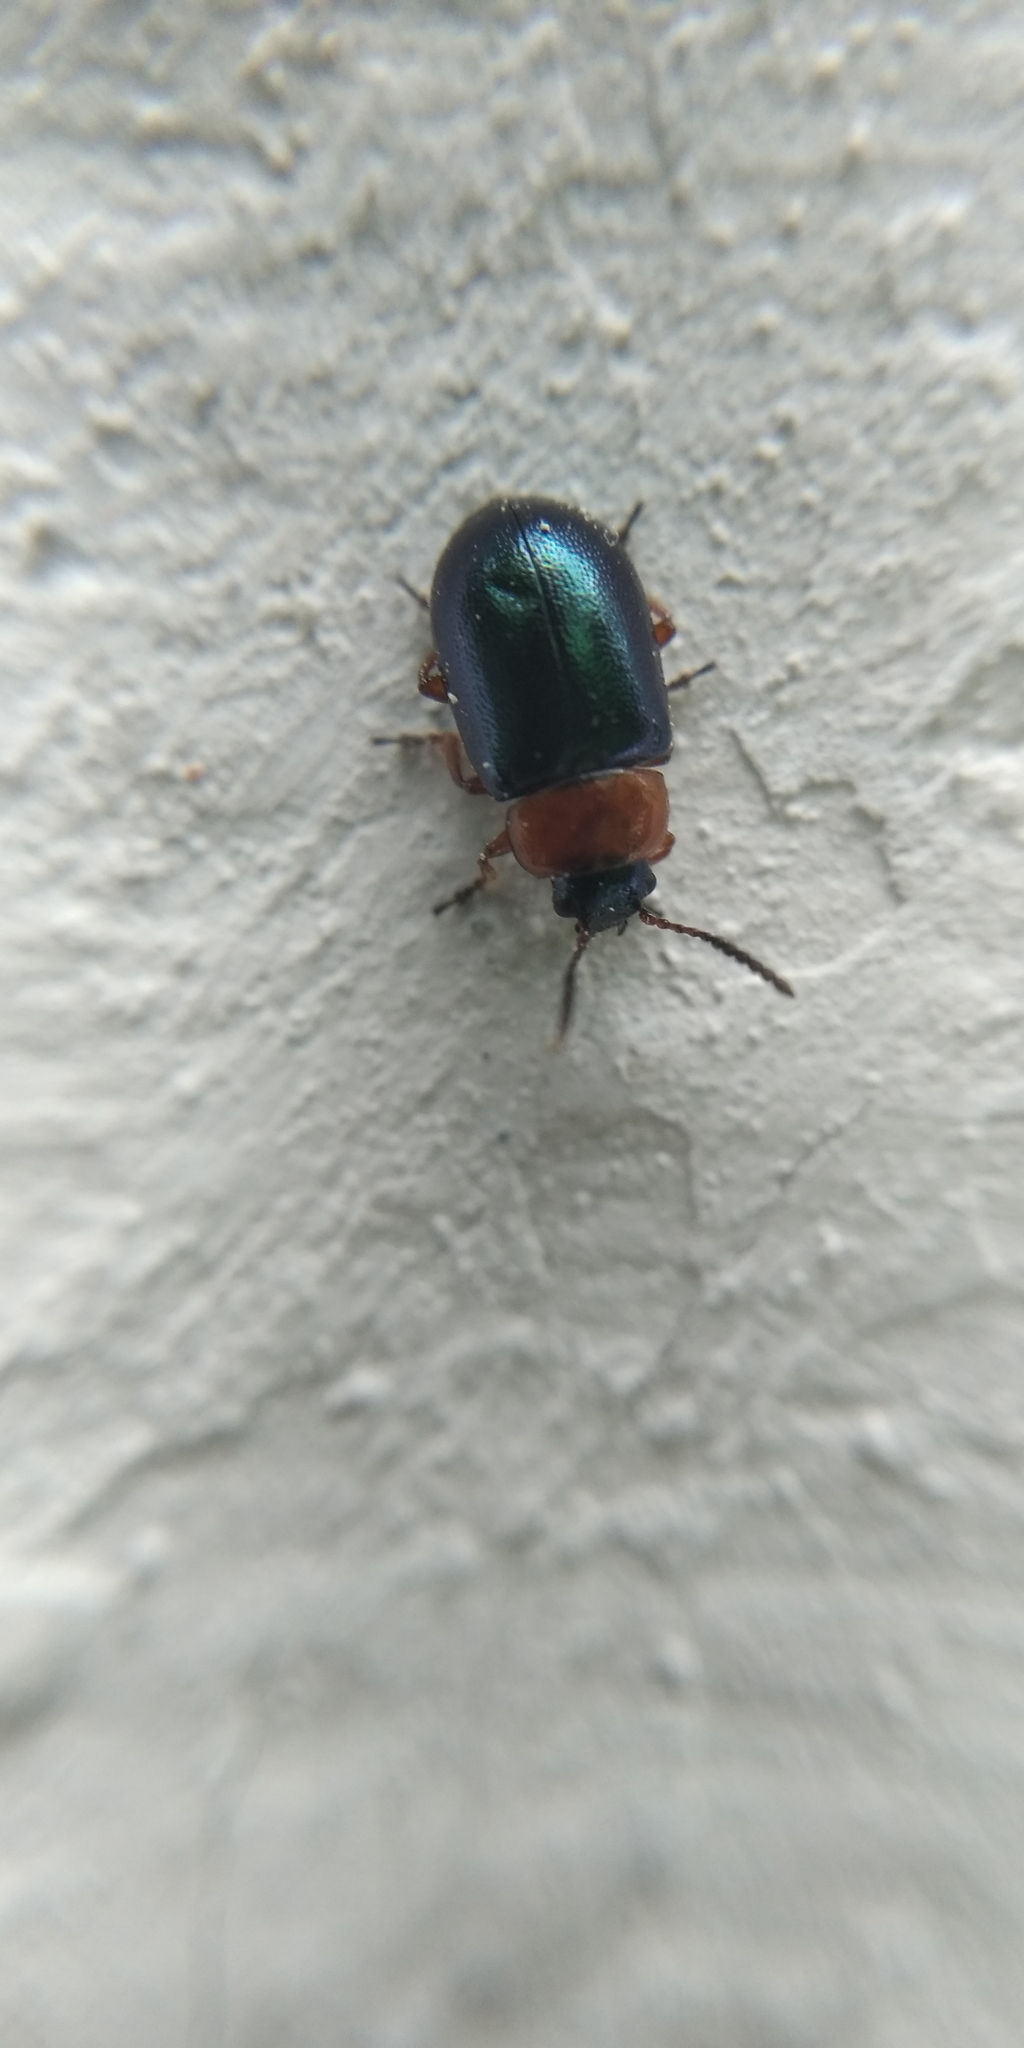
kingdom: Animalia
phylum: Arthropoda
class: Insecta
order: Coleoptera
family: Chrysomelidae
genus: Gastrophysa
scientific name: Gastrophysa polygoni
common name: Knotweed leaf beetle
